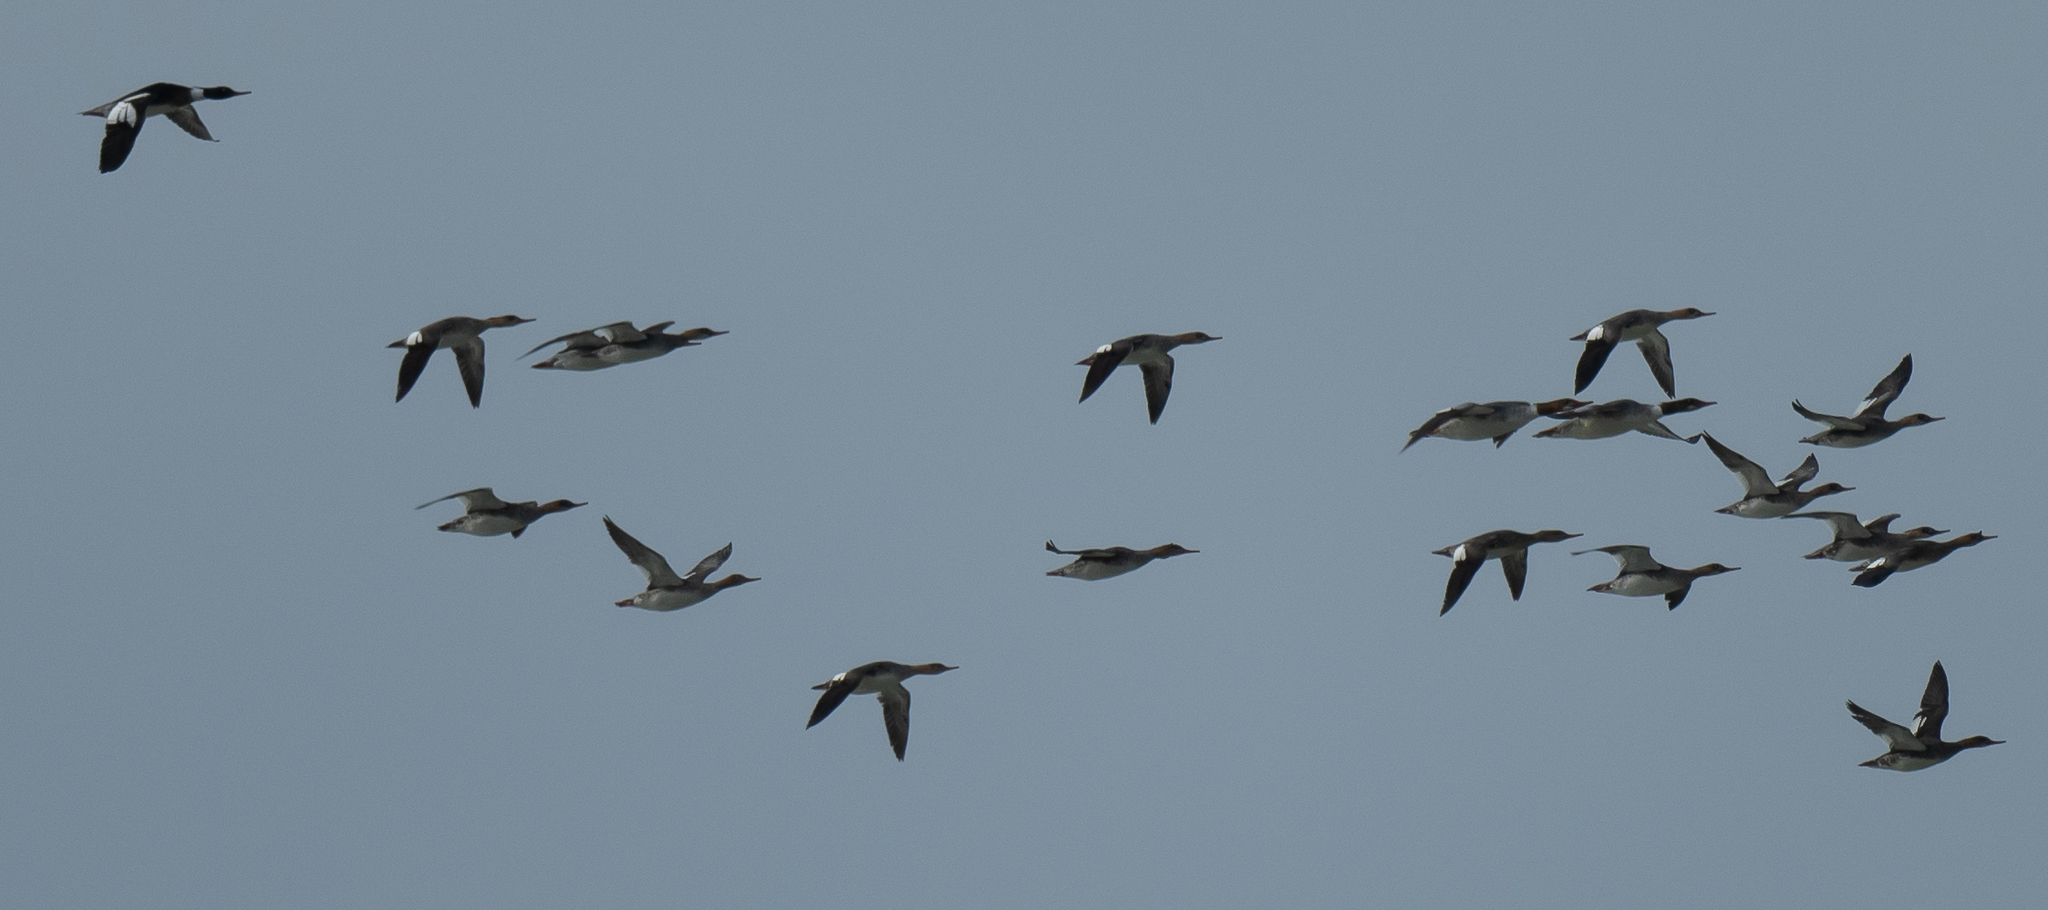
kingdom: Animalia
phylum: Chordata
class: Aves
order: Anseriformes
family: Anatidae
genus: Mergus
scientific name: Mergus serrator
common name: Red-breasted merganser
